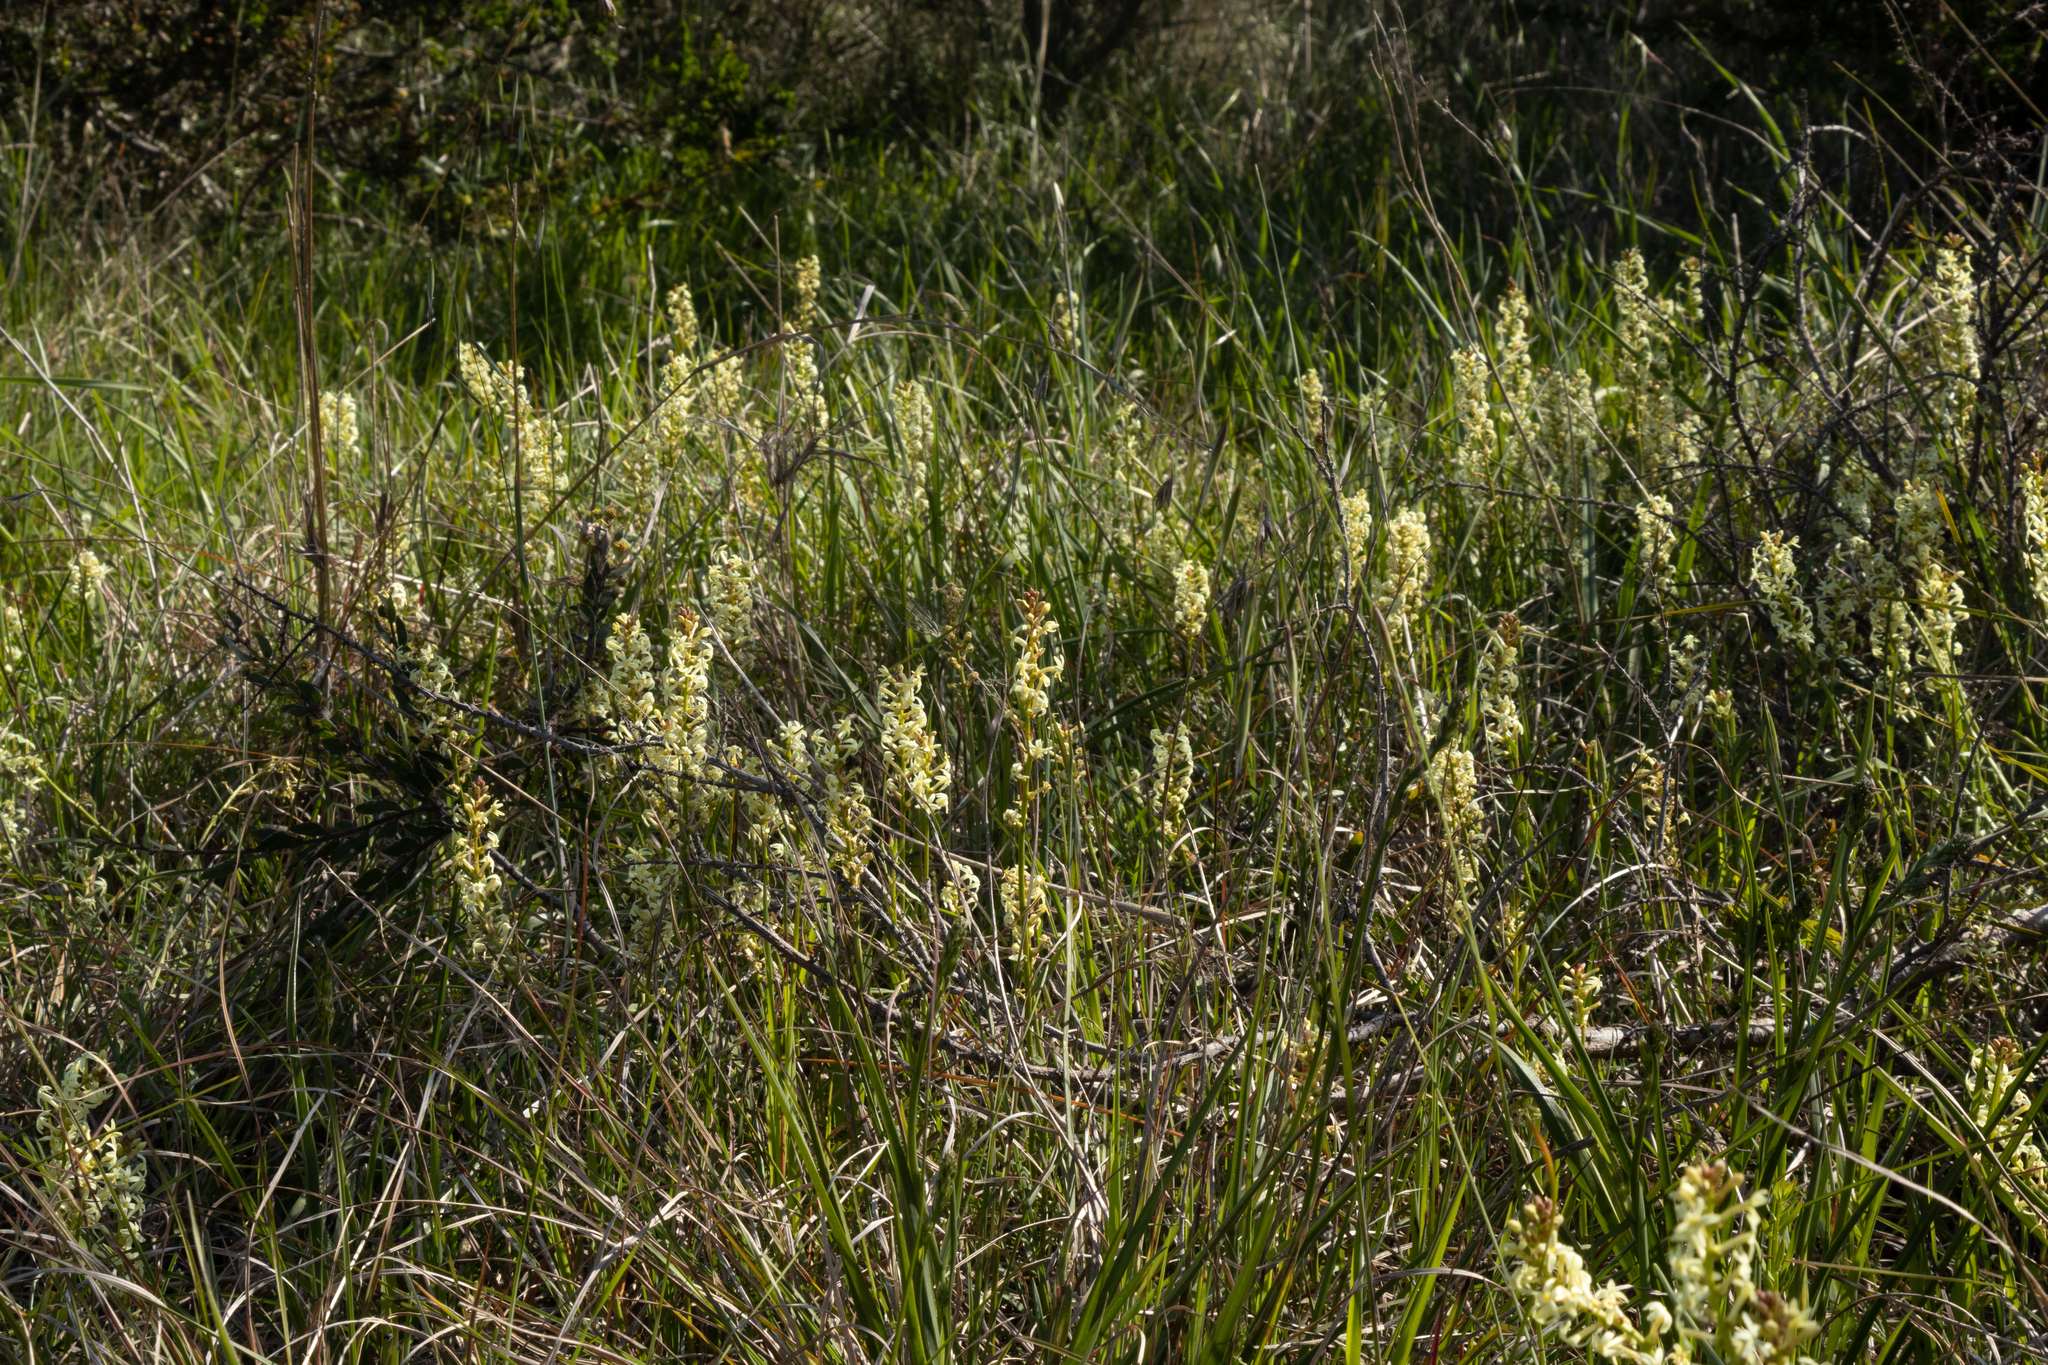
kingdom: Plantae
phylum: Tracheophyta
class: Magnoliopsida
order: Celastrales
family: Celastraceae
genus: Stackhousia
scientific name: Stackhousia subterranea
